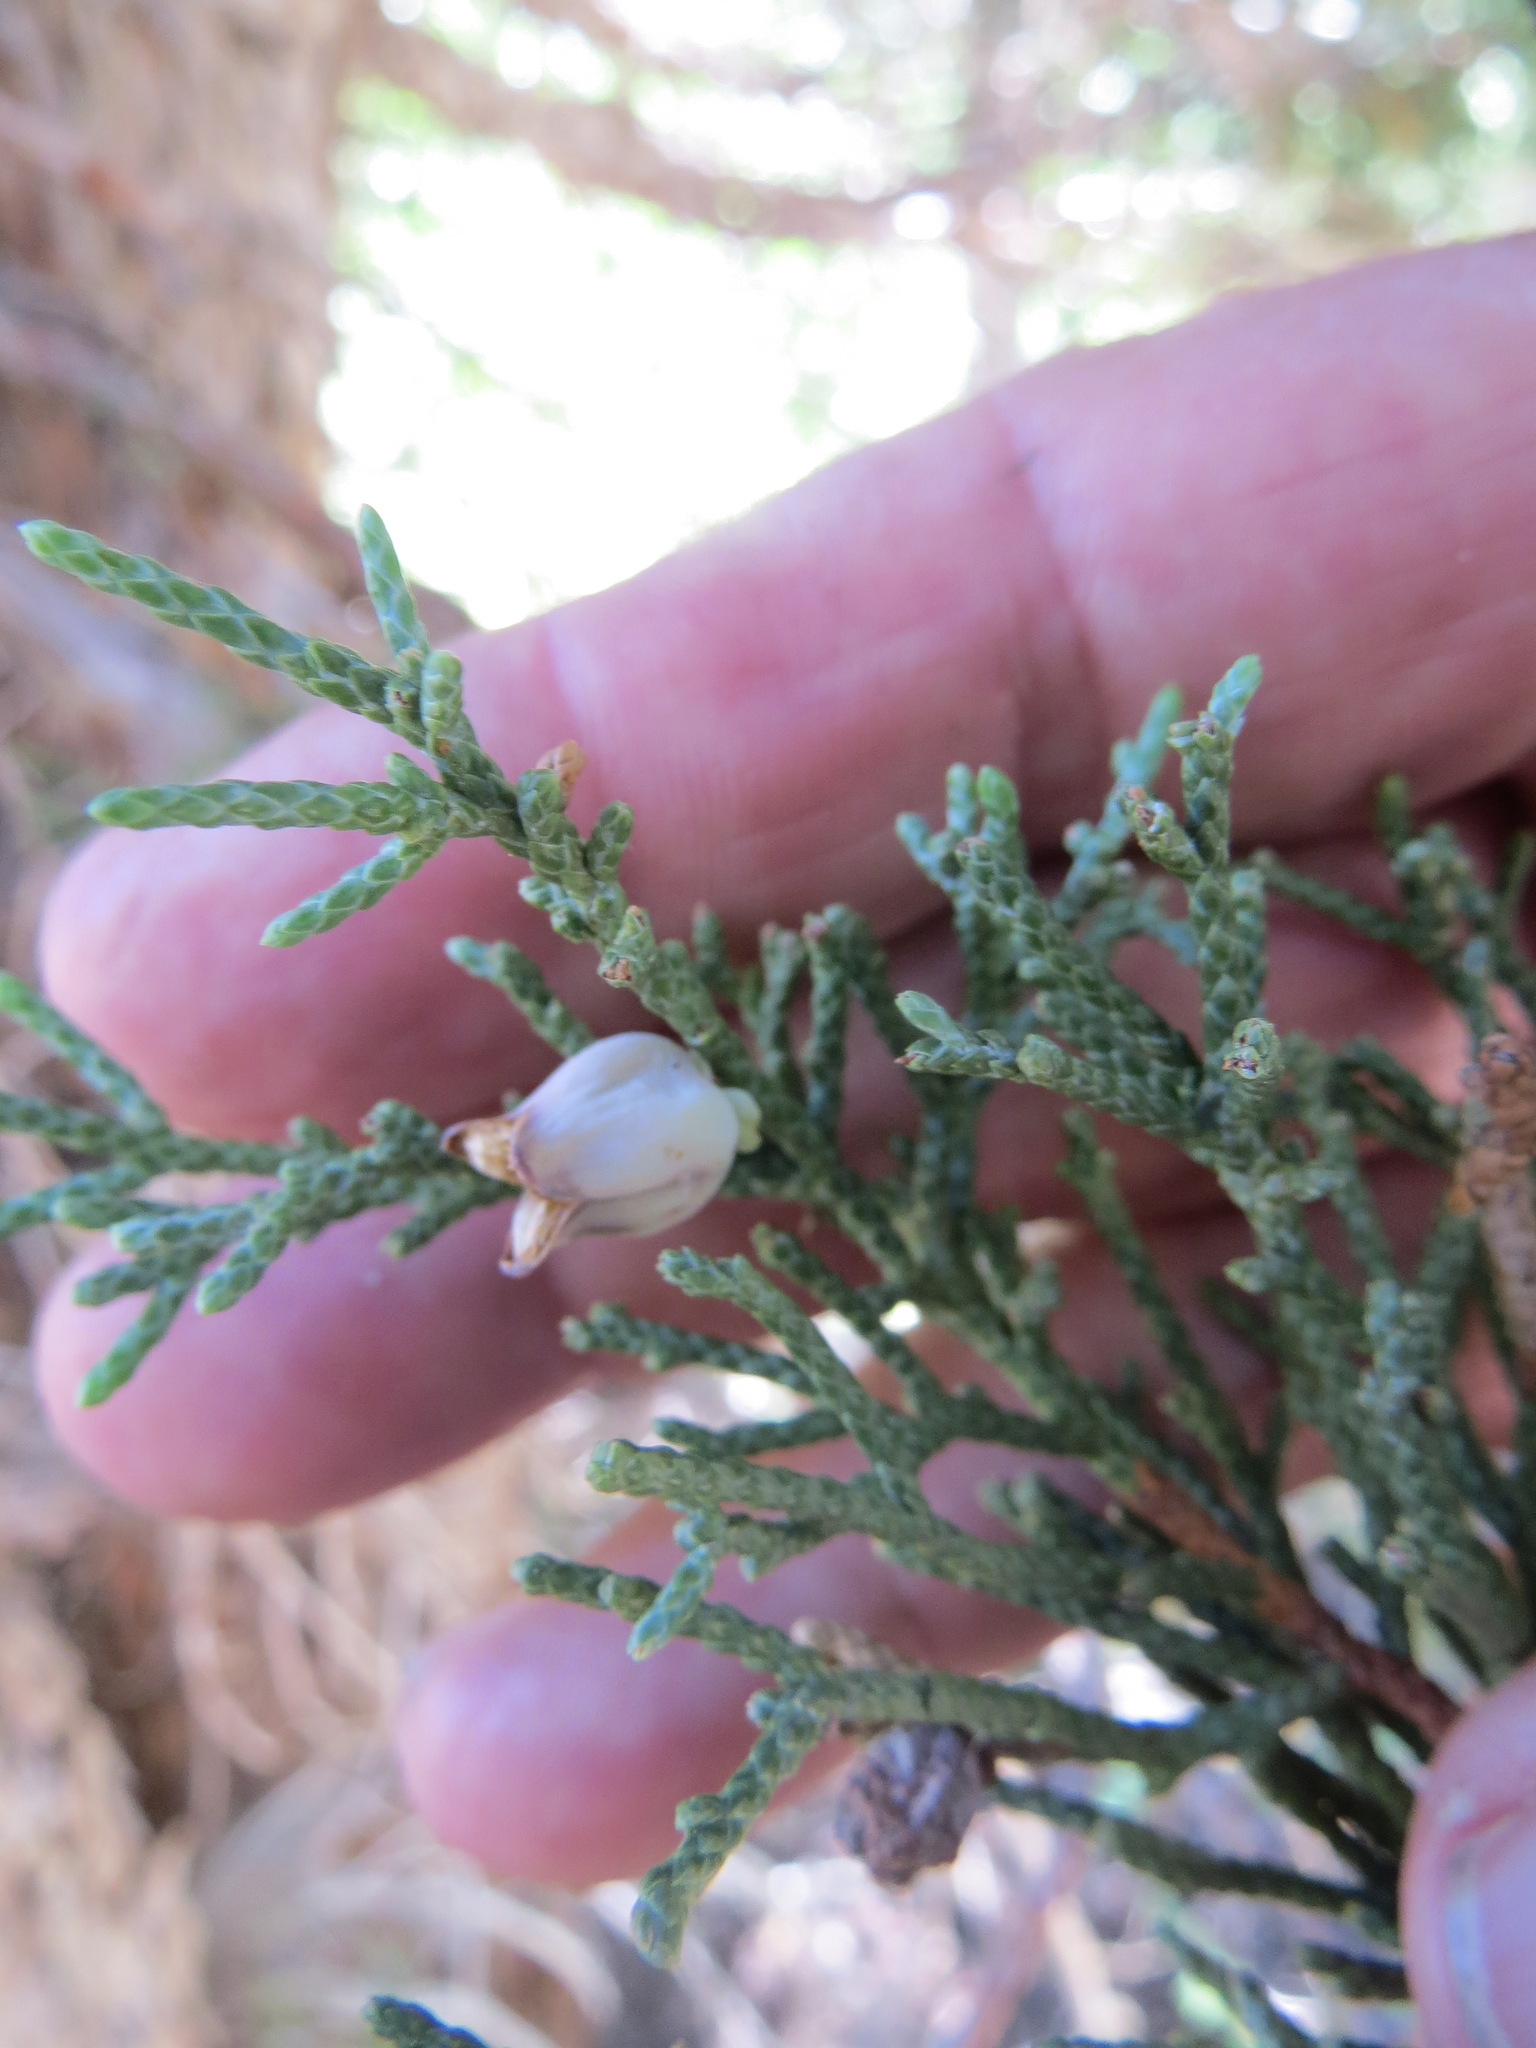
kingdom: Animalia
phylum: Arthropoda
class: Insecta
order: Diptera
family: Cecidomyiidae
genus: Walshomyia
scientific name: Walshomyia juniperina
